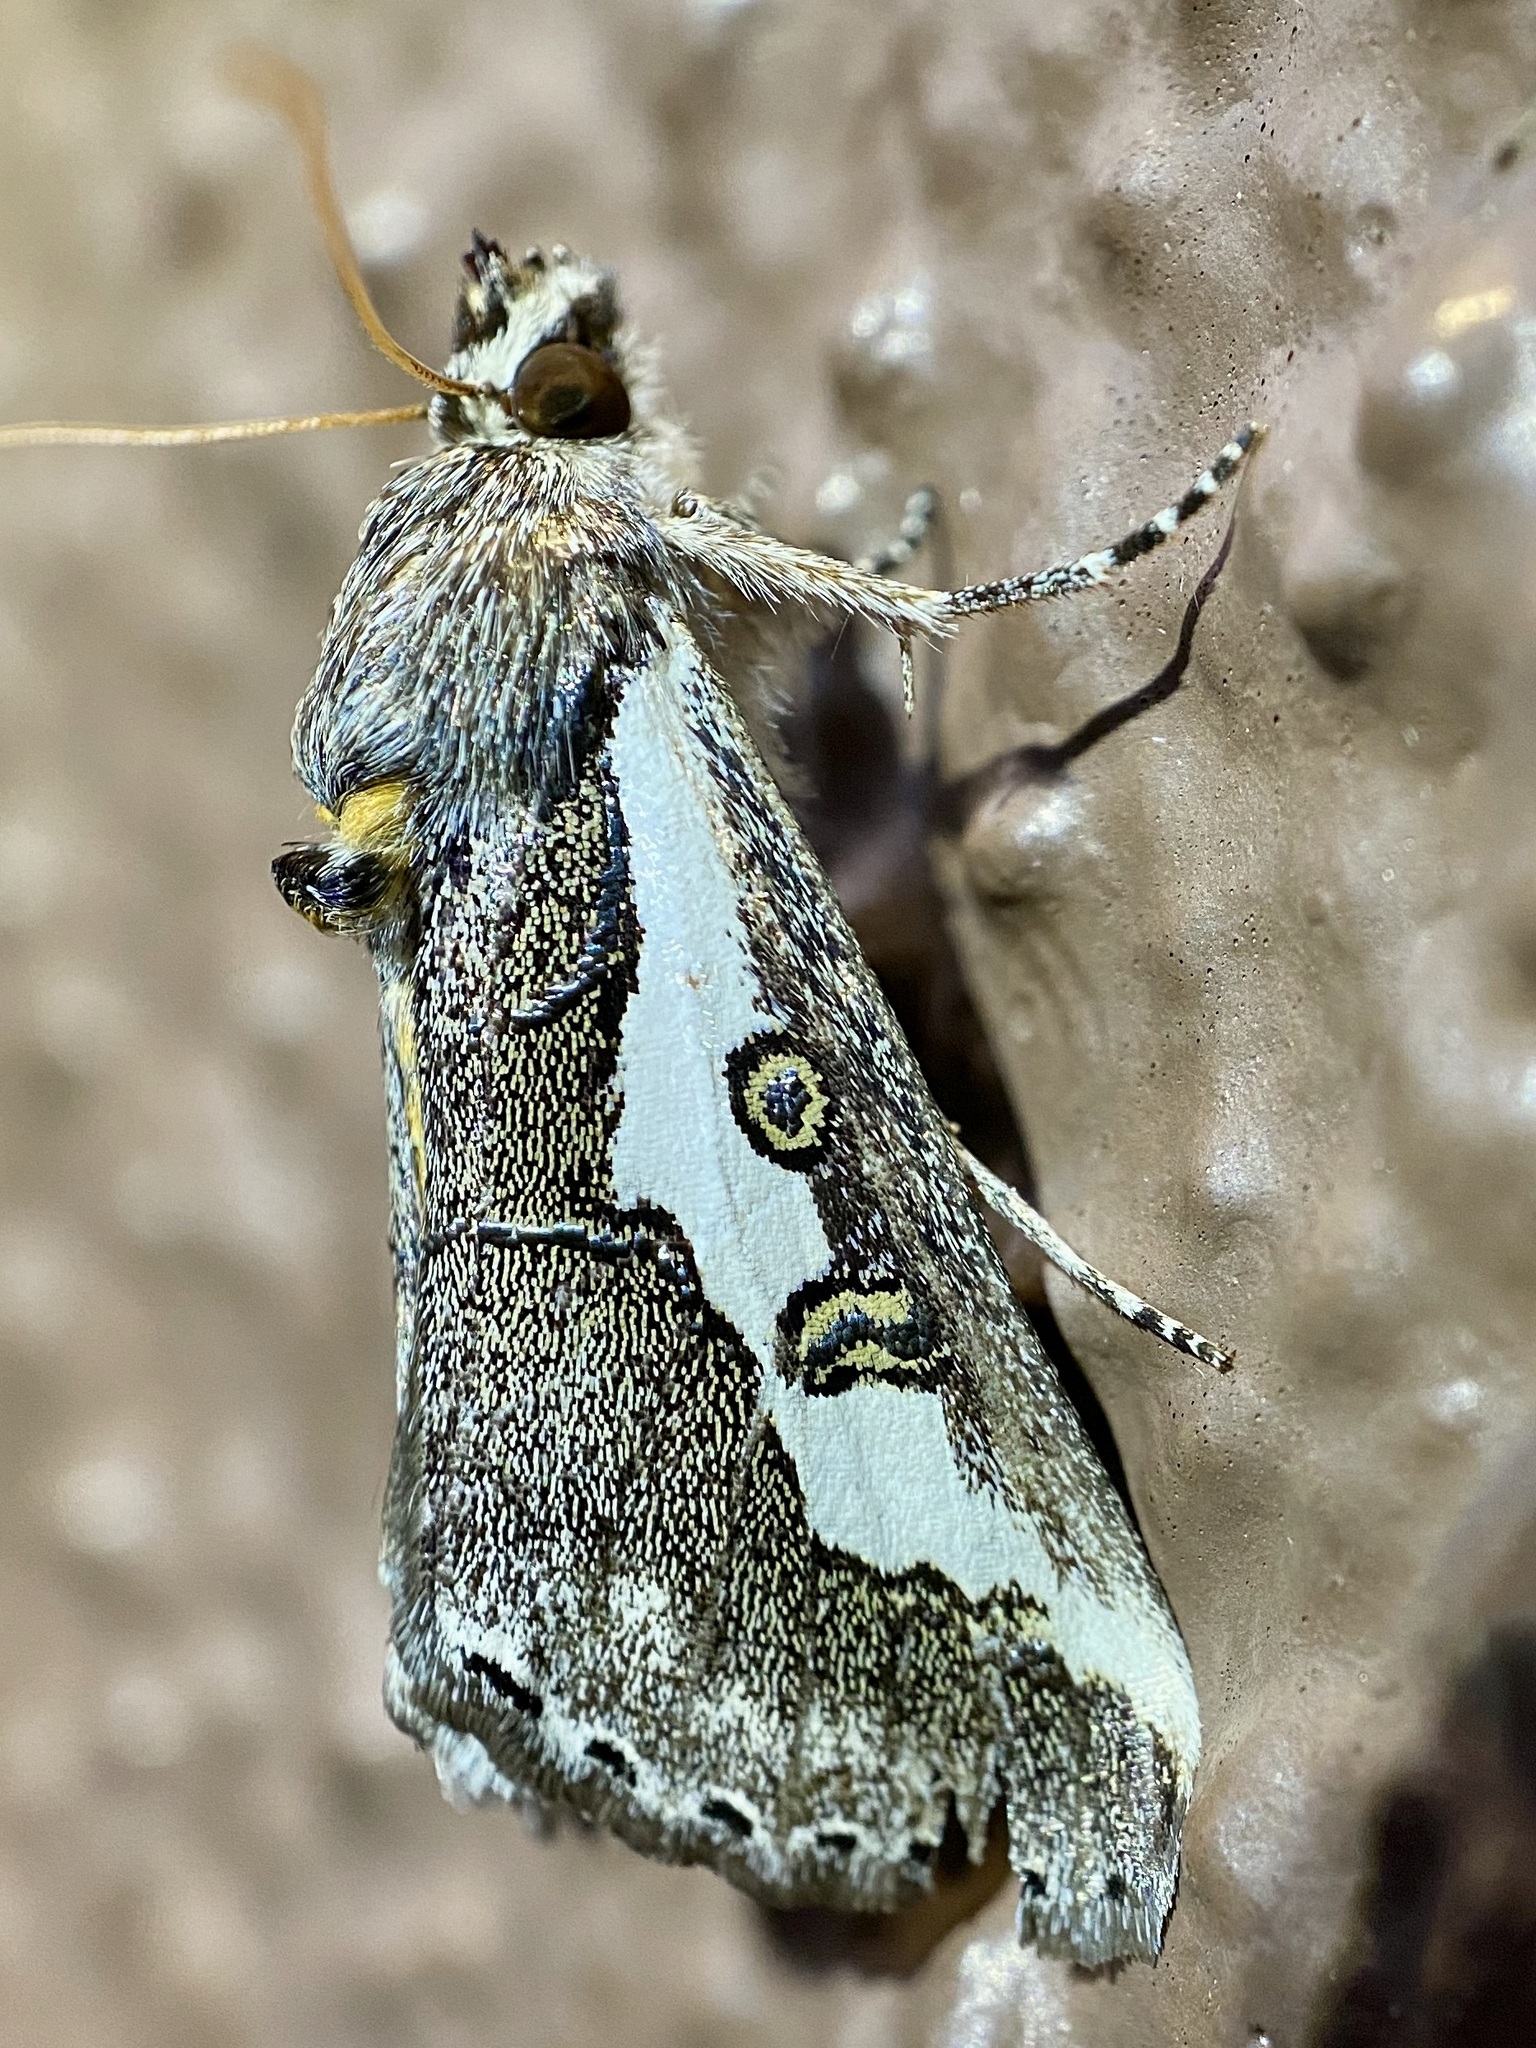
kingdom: Animalia
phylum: Arthropoda
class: Insecta
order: Lepidoptera
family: Noctuidae
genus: Euscirrhopterus
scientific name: Euscirrhopterus gloveri
